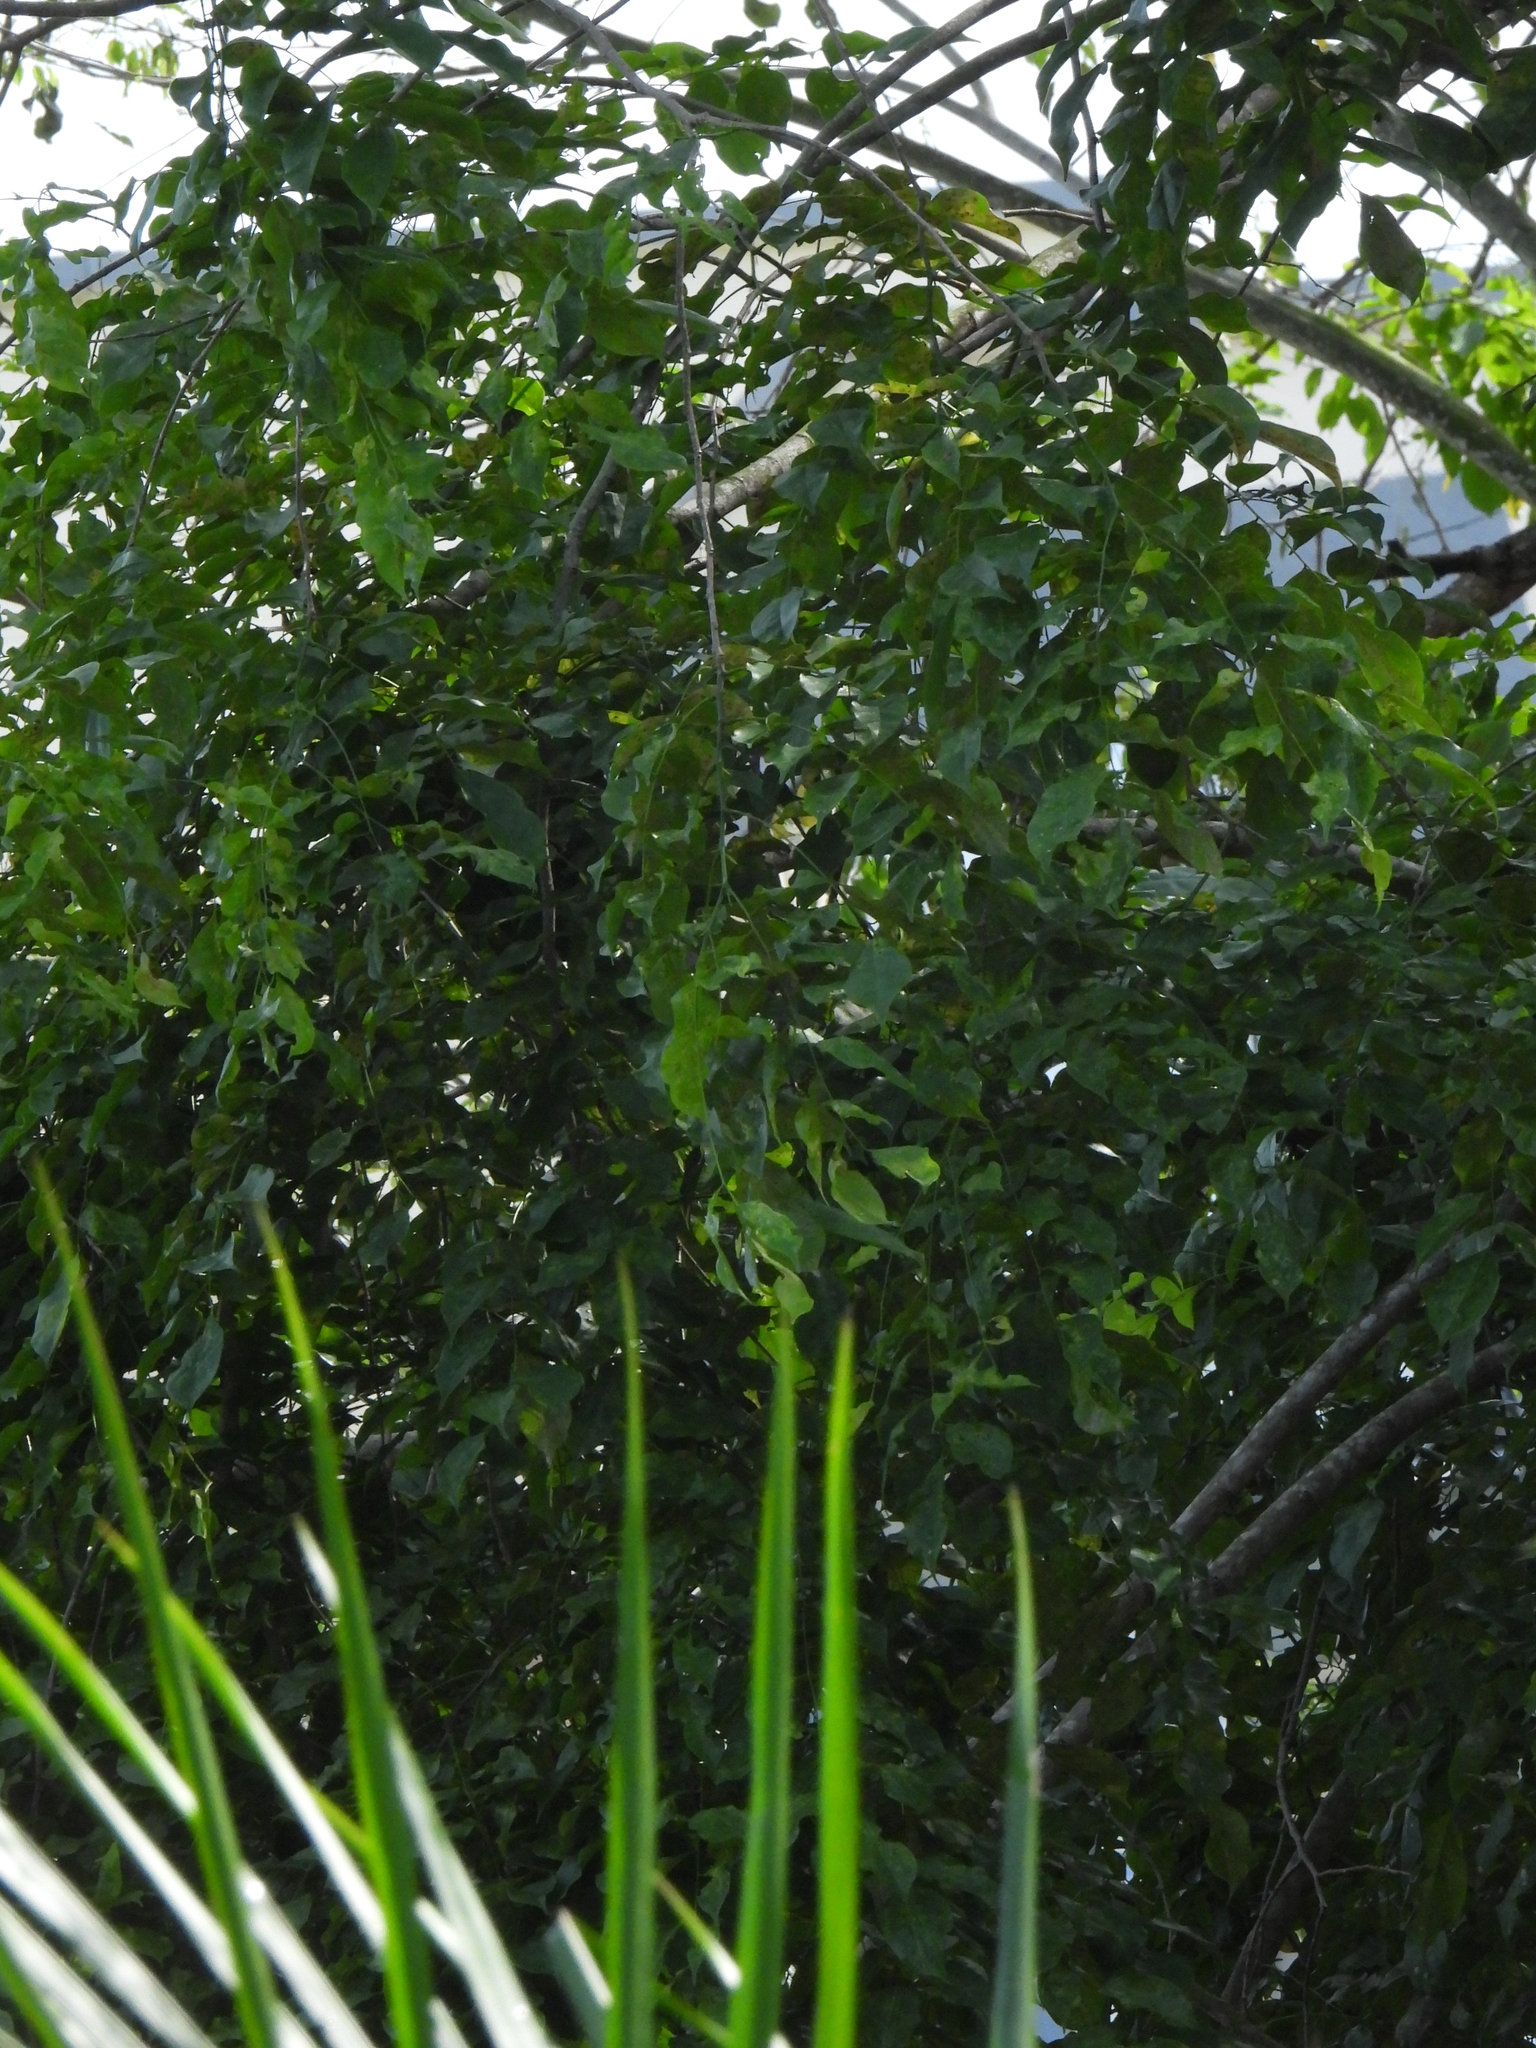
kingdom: Plantae
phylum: Tracheophyta
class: Magnoliopsida
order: Fabales
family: Fabaceae
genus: Pterocarpus
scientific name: Pterocarpus indicus
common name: Burmese rosewood
